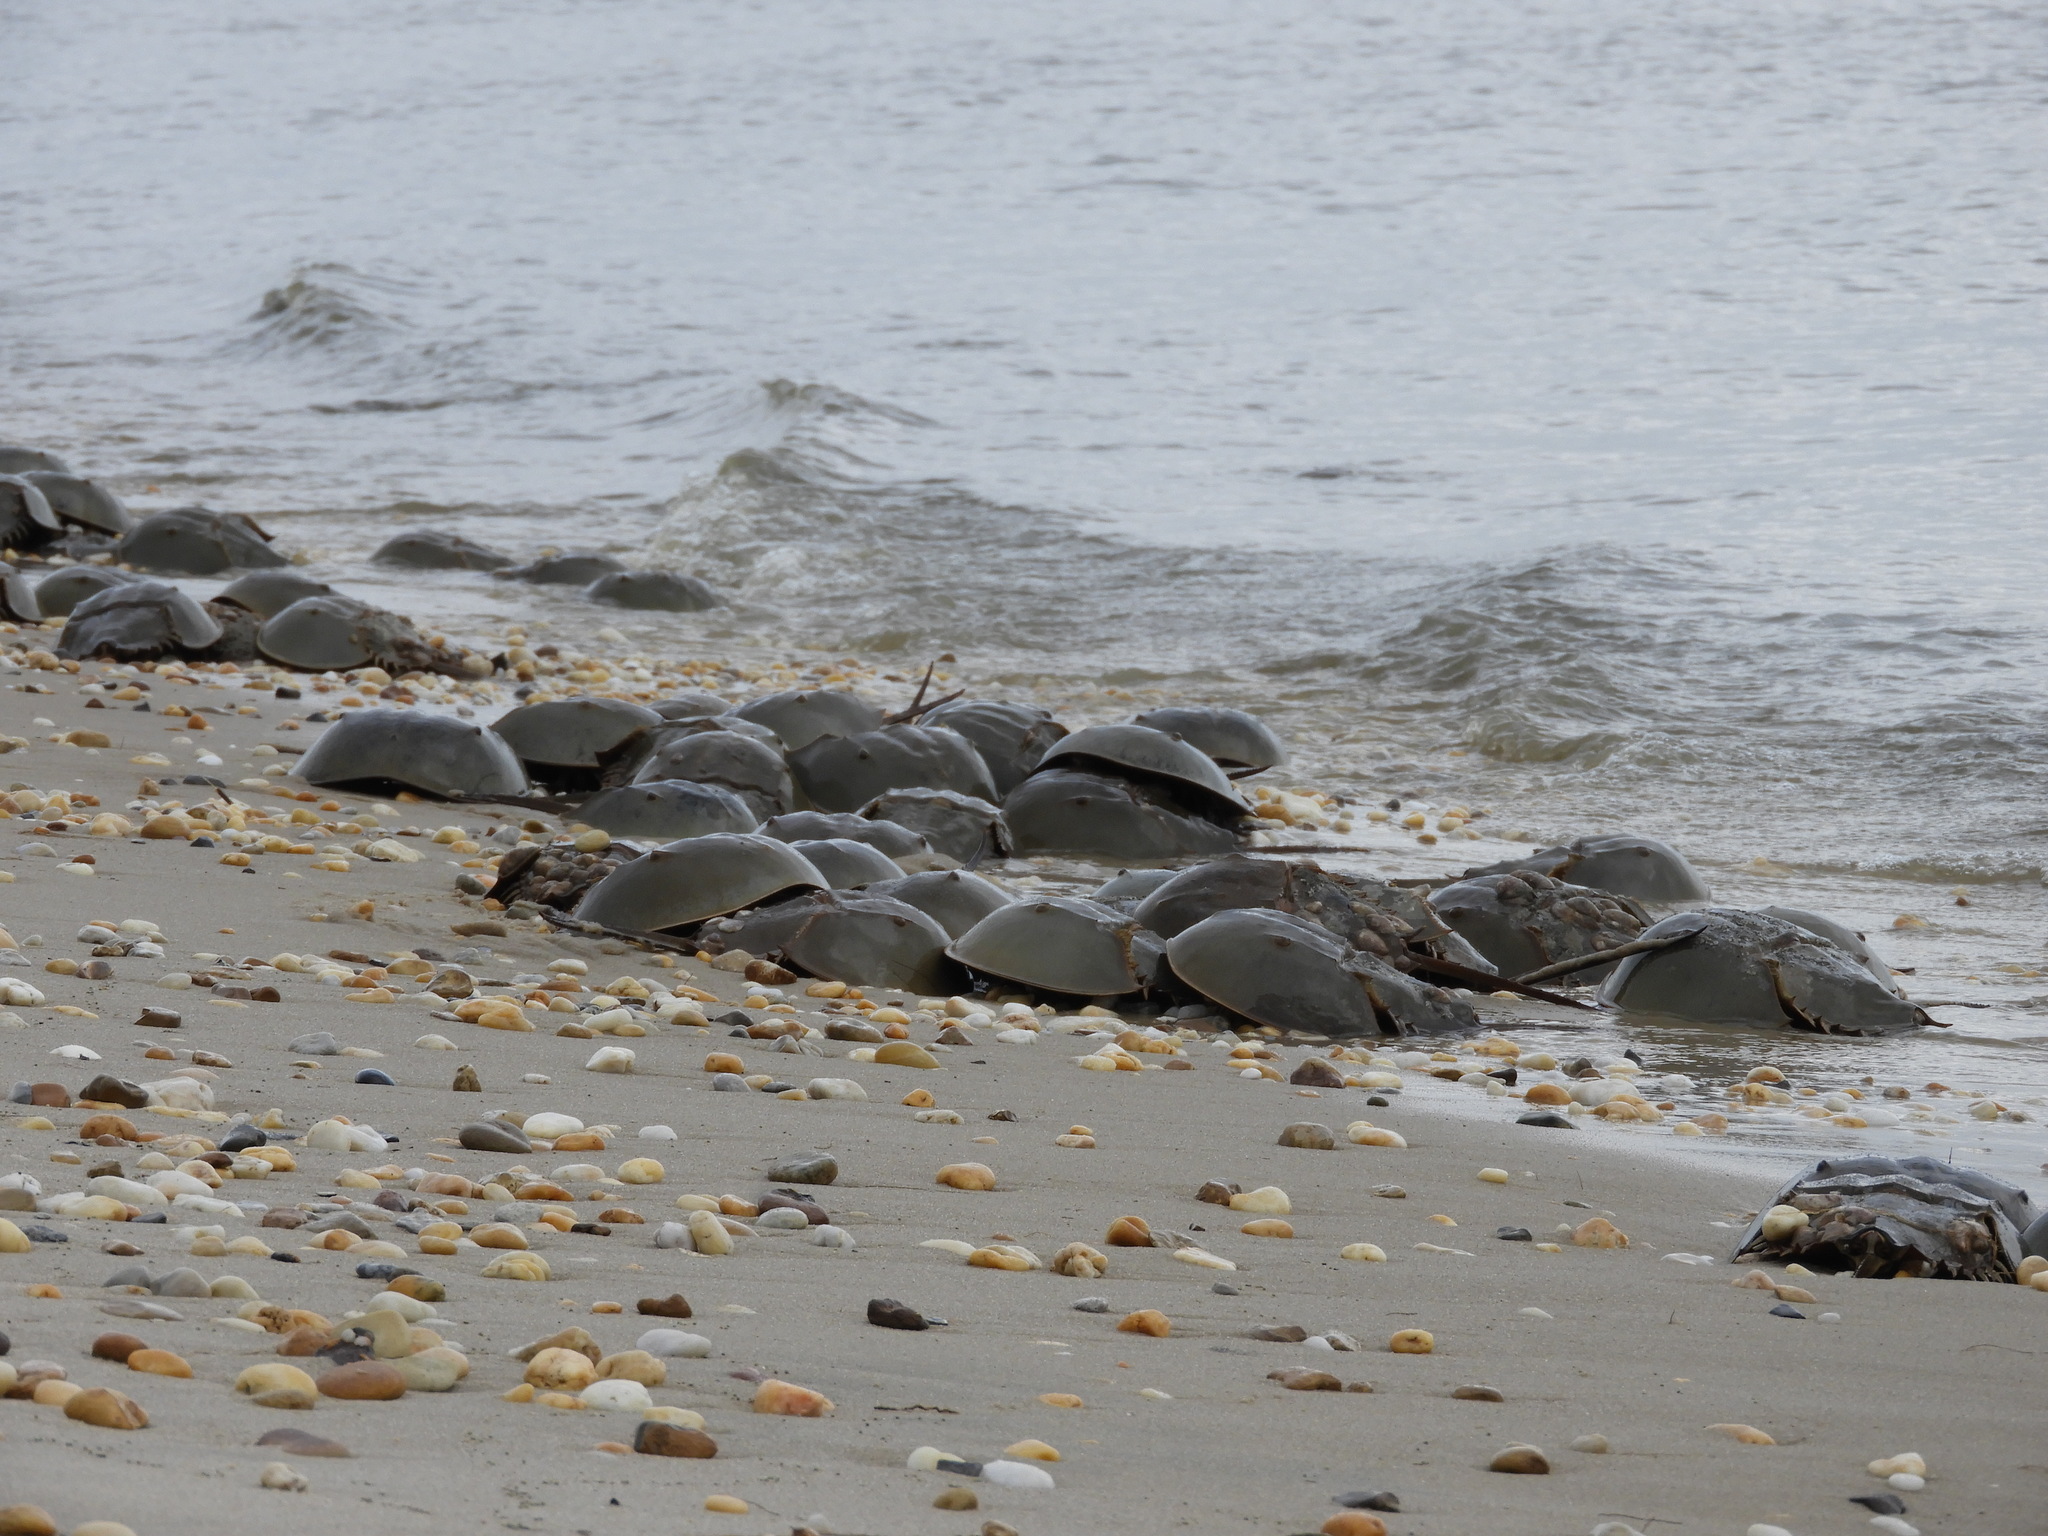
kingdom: Animalia
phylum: Arthropoda
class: Merostomata
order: Xiphosurida
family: Limulidae
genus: Limulus
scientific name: Limulus polyphemus
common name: Horseshoe crab
